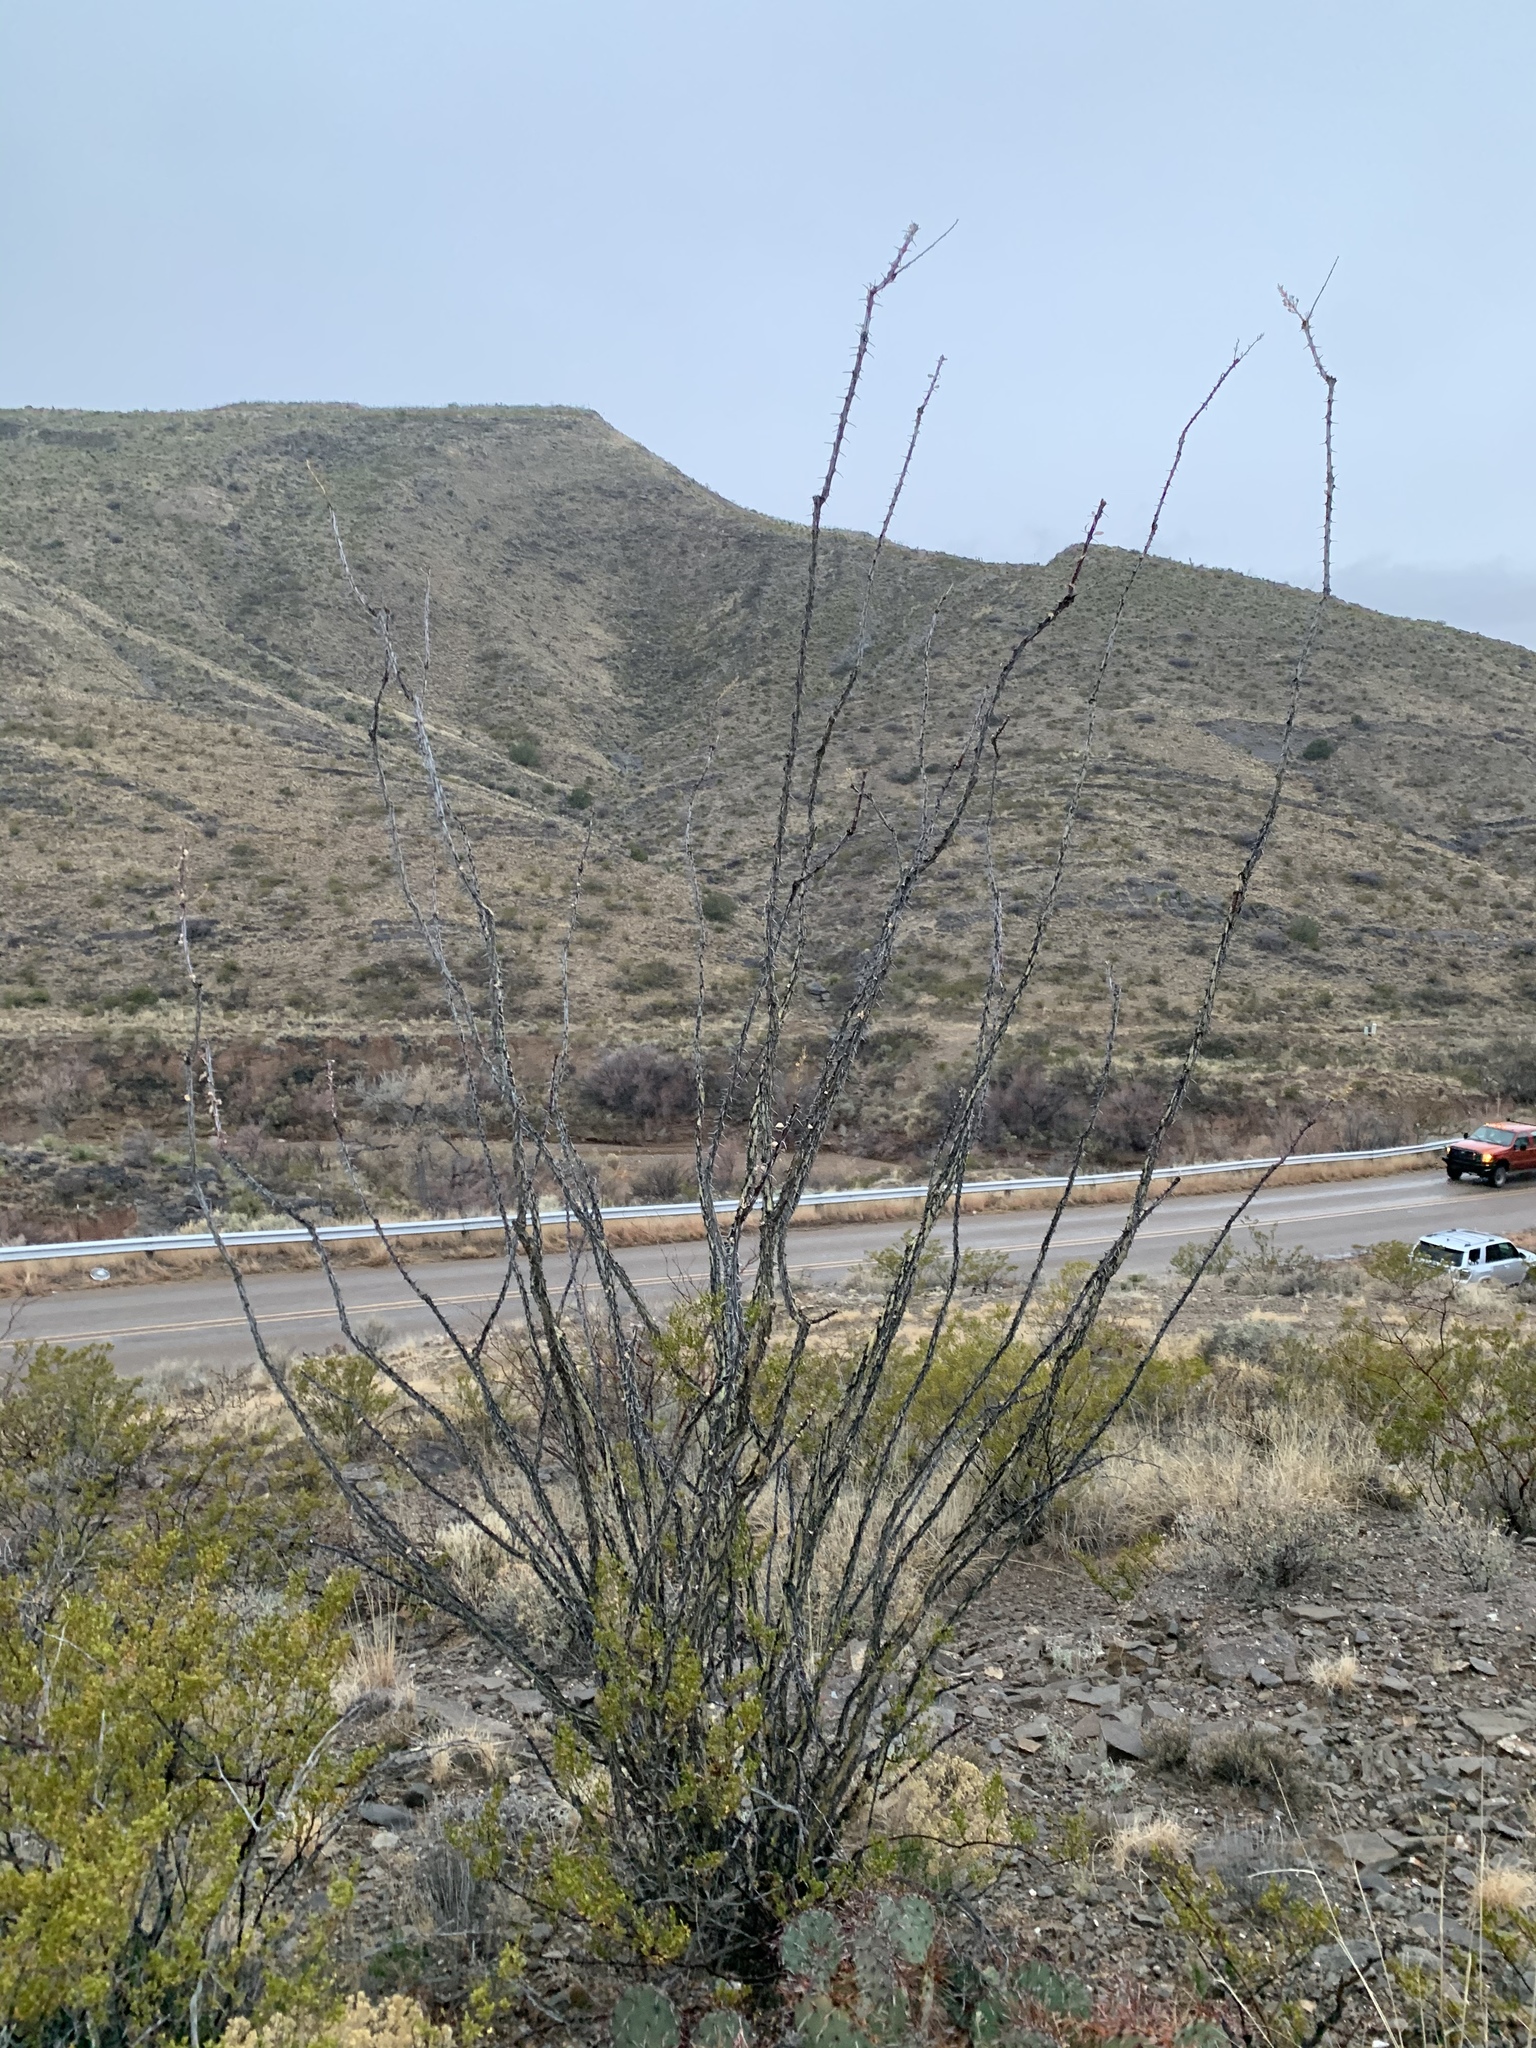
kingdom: Plantae
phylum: Tracheophyta
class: Magnoliopsida
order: Ericales
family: Fouquieriaceae
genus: Fouquieria
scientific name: Fouquieria splendens
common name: Vine-cactus
